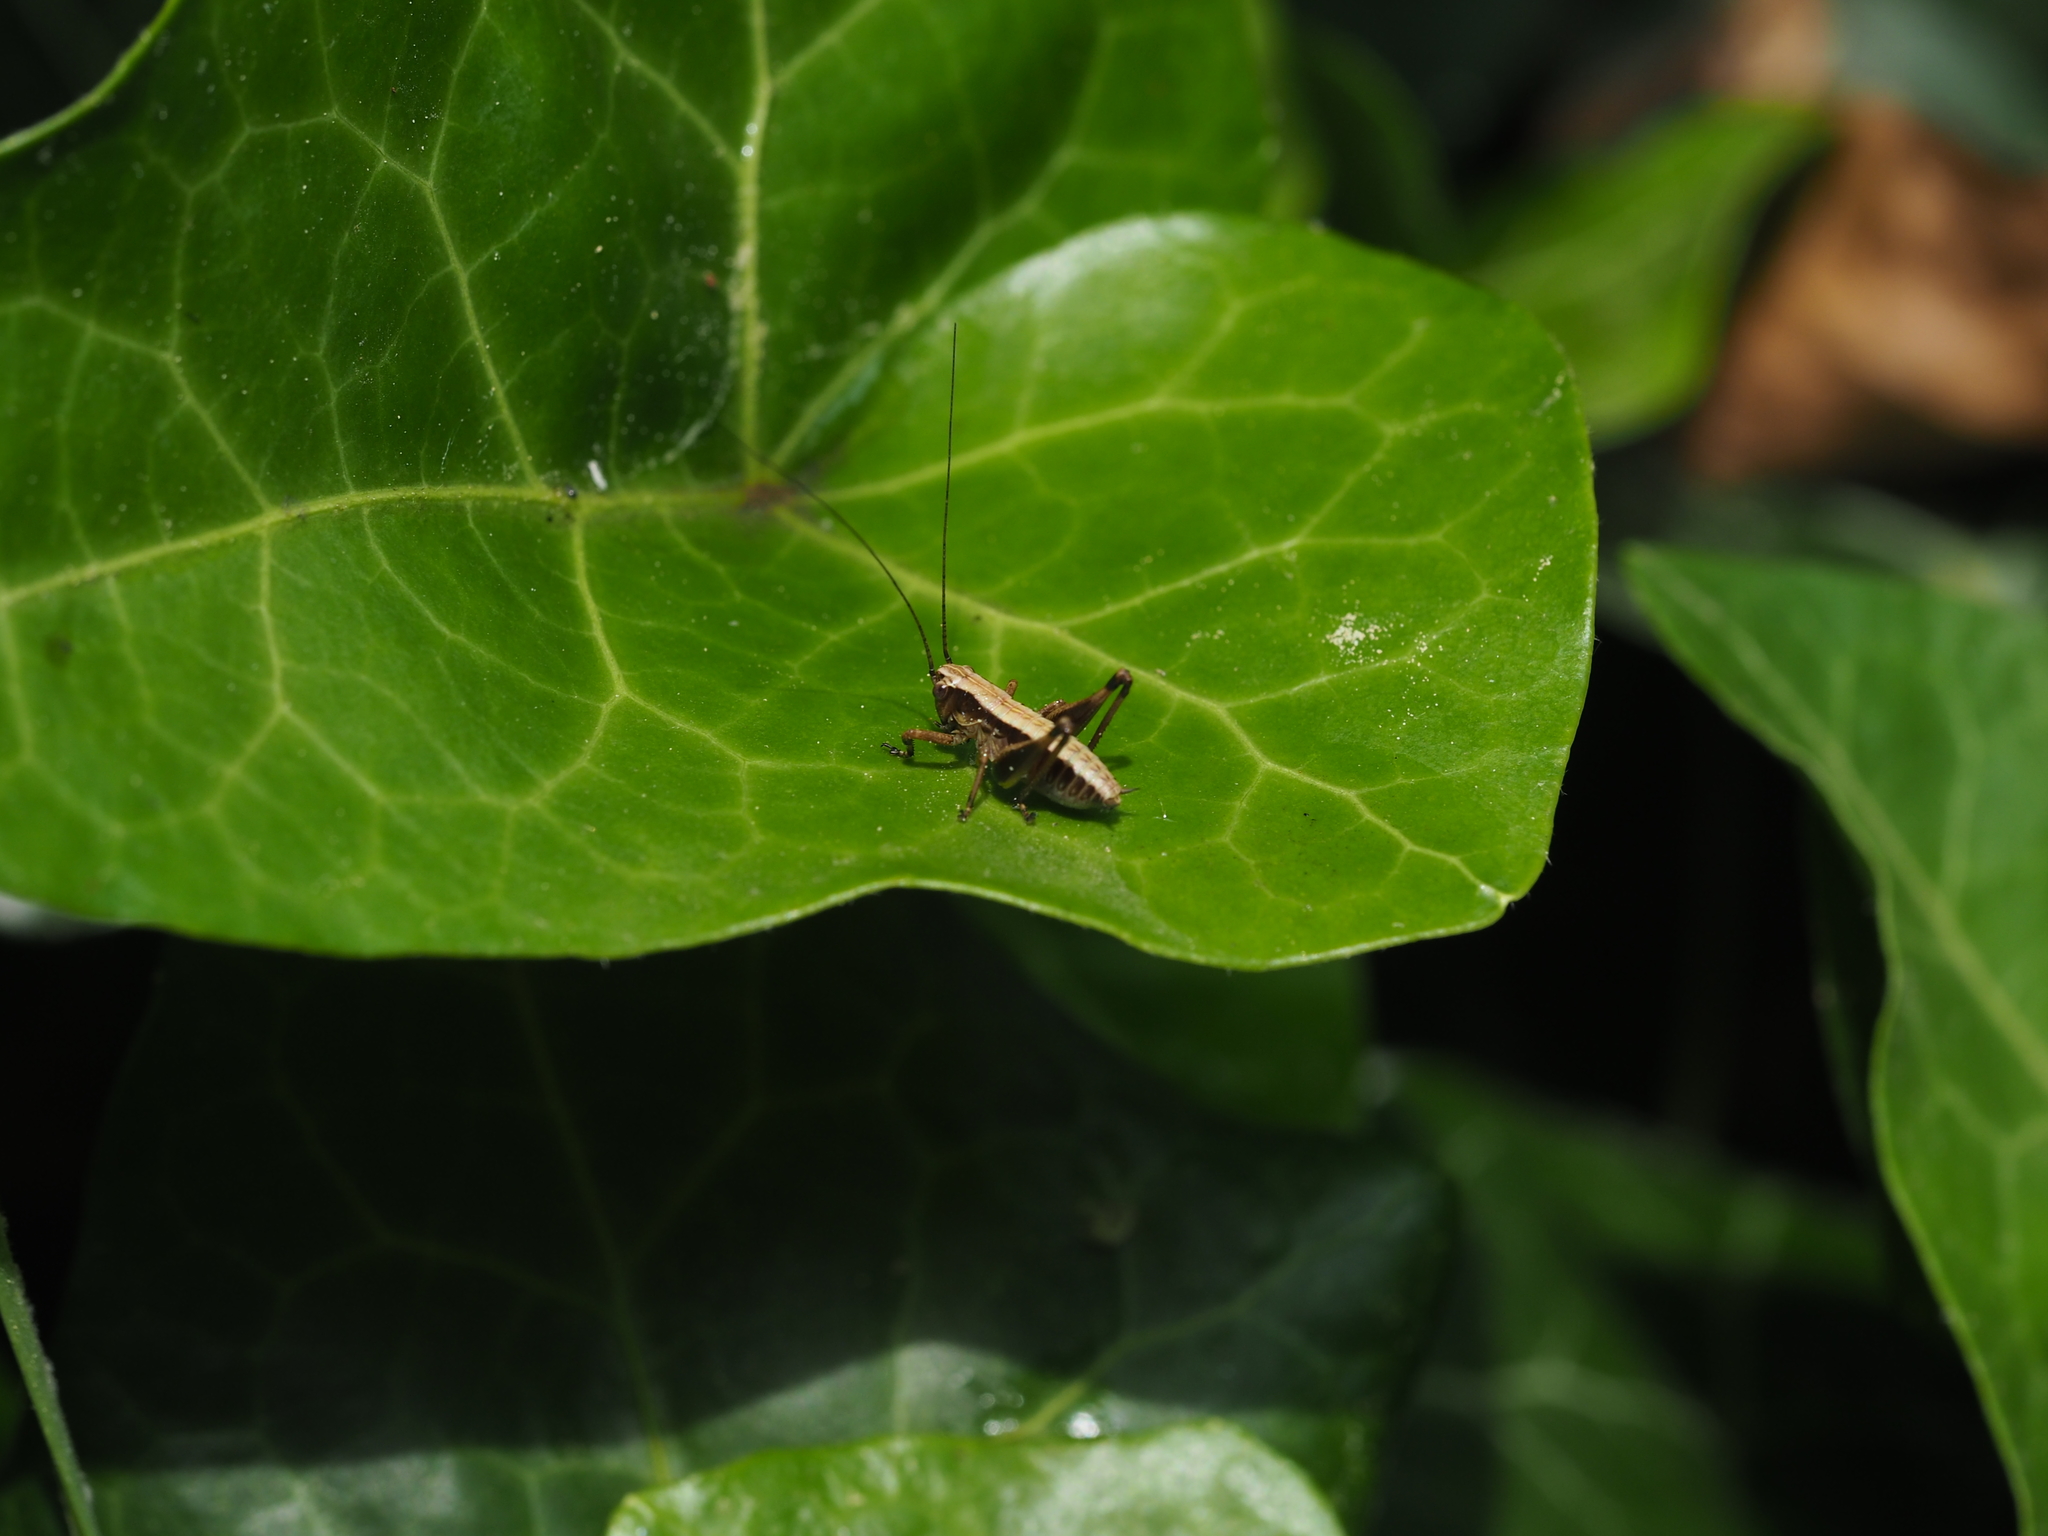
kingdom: Animalia
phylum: Arthropoda
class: Insecta
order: Orthoptera
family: Tettigoniidae
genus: Pholidoptera
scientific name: Pholidoptera griseoaptera
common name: Dark bush-cricket
